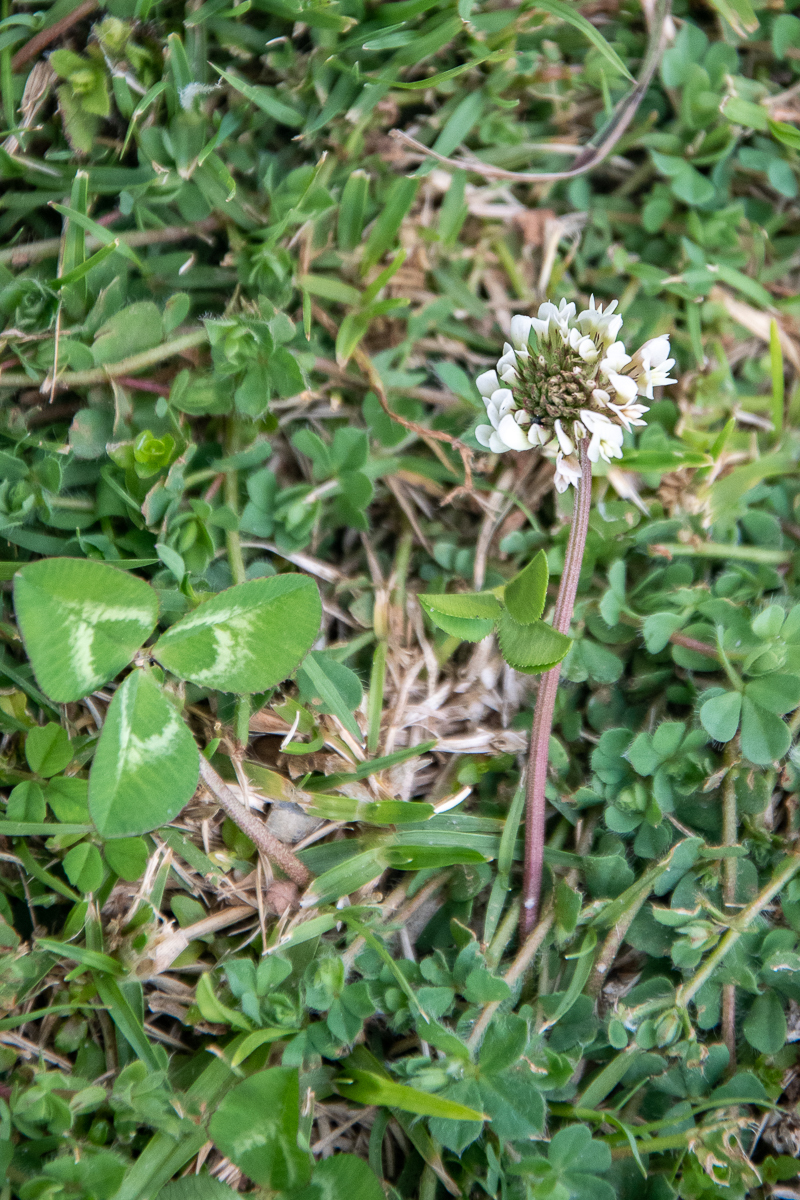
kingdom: Plantae
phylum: Tracheophyta
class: Magnoliopsida
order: Fabales
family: Fabaceae
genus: Trifolium
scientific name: Trifolium repens
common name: White clover
